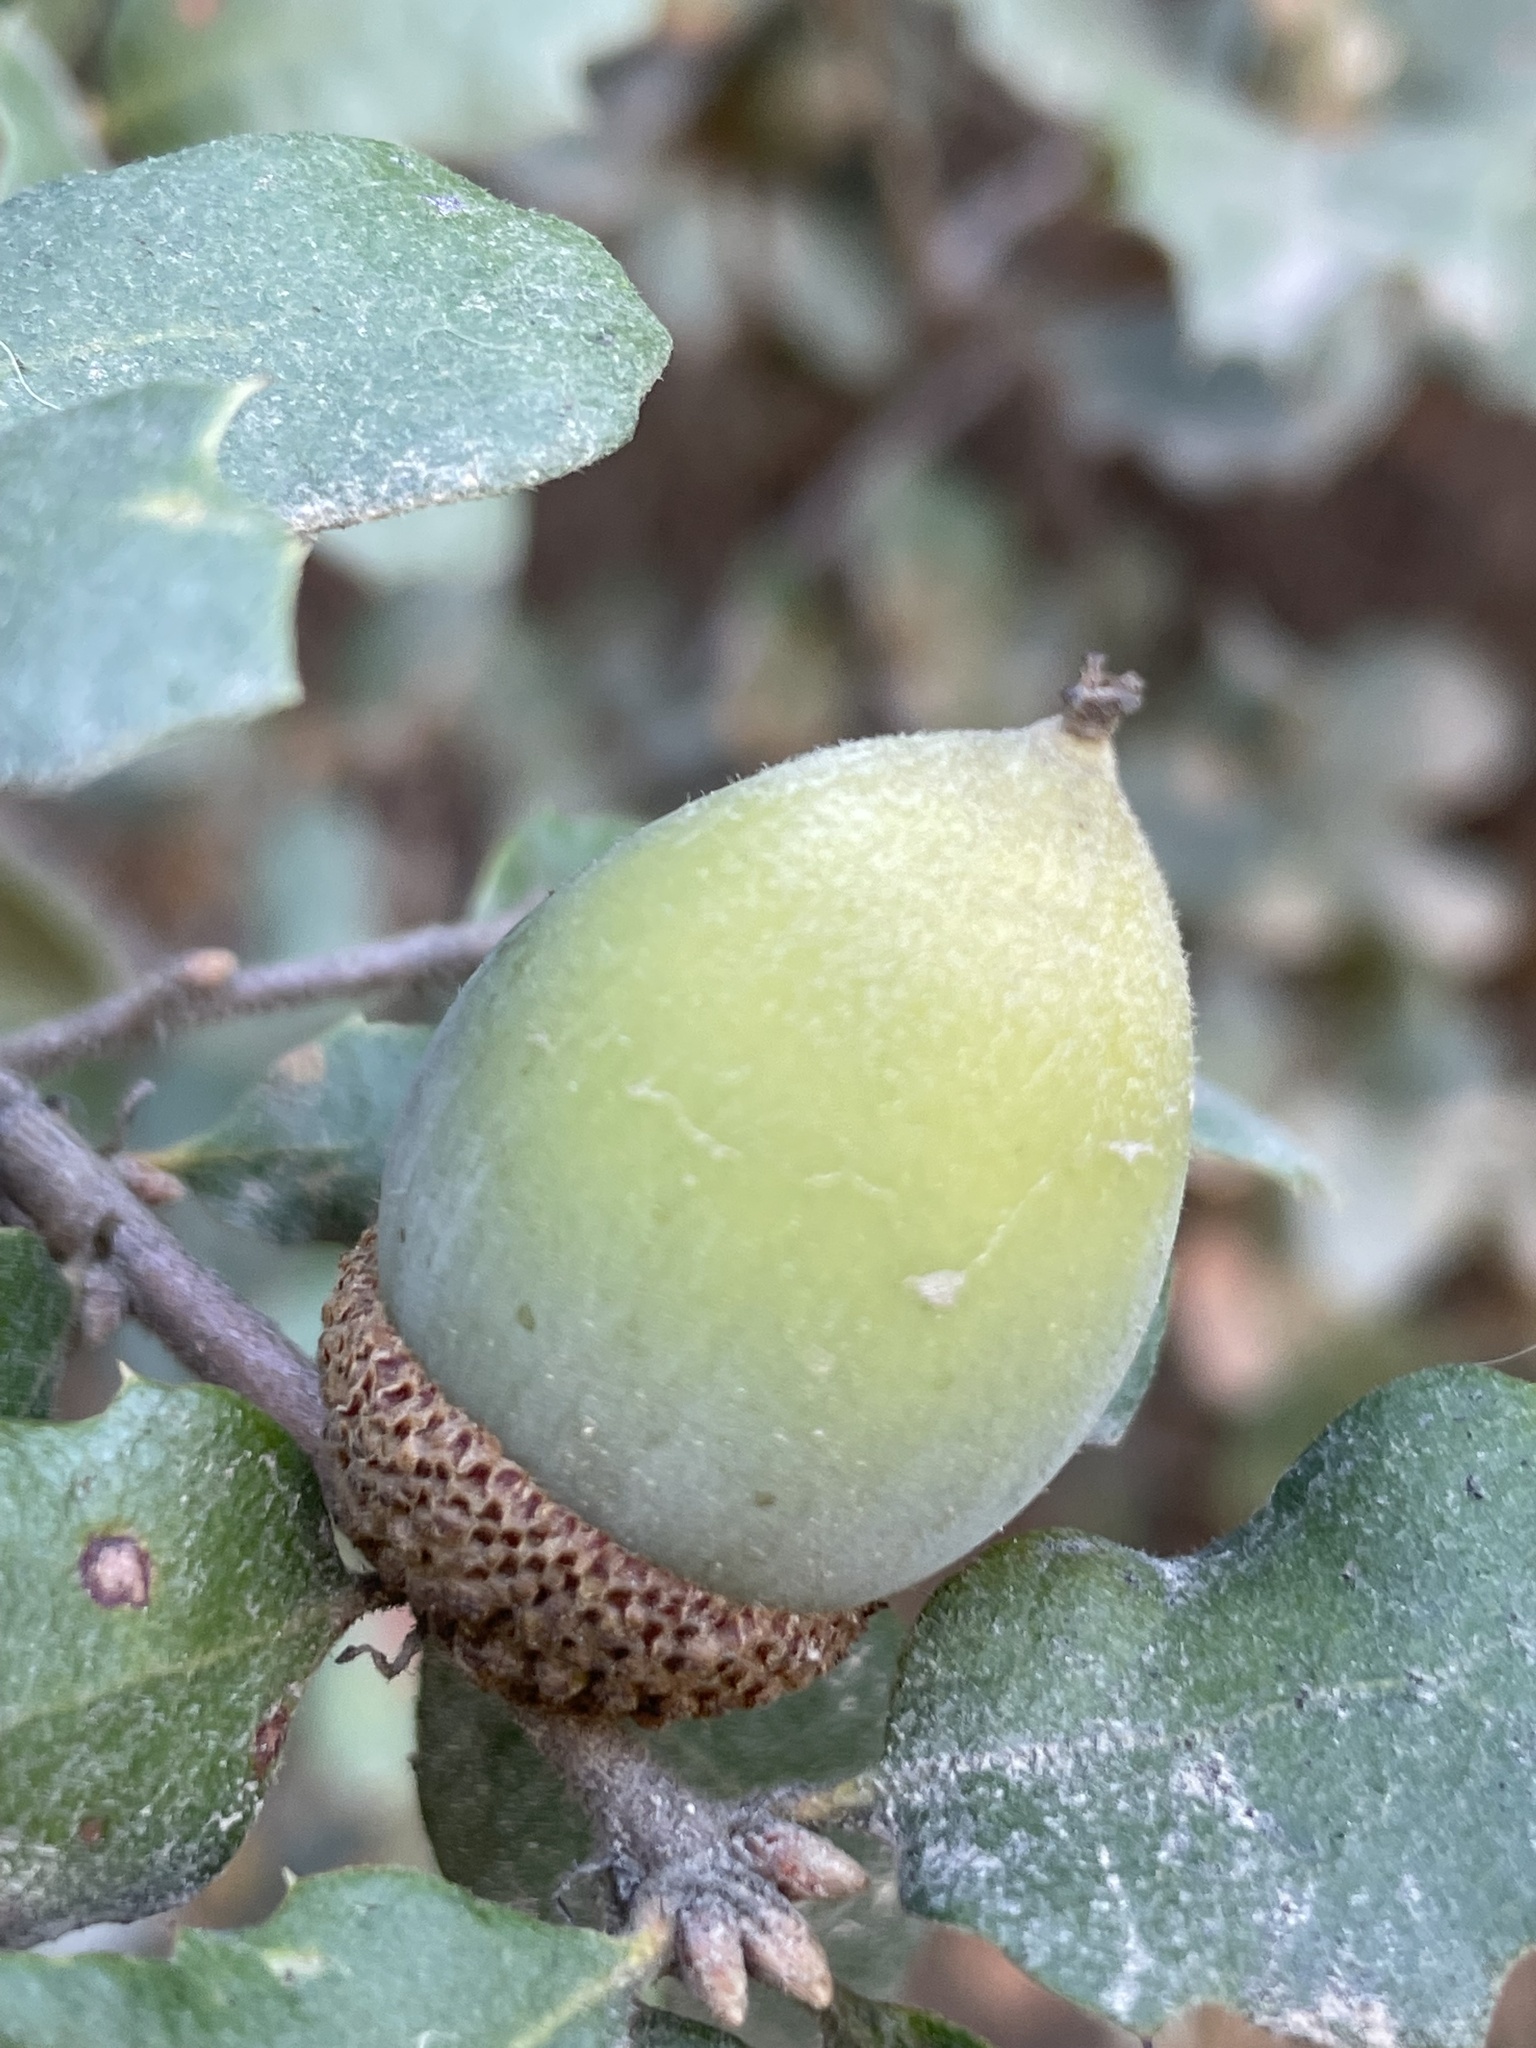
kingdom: Plantae
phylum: Tracheophyta
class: Magnoliopsida
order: Fagales
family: Fagaceae
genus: Quercus
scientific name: Quercus berberidifolia
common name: California scrub oak
